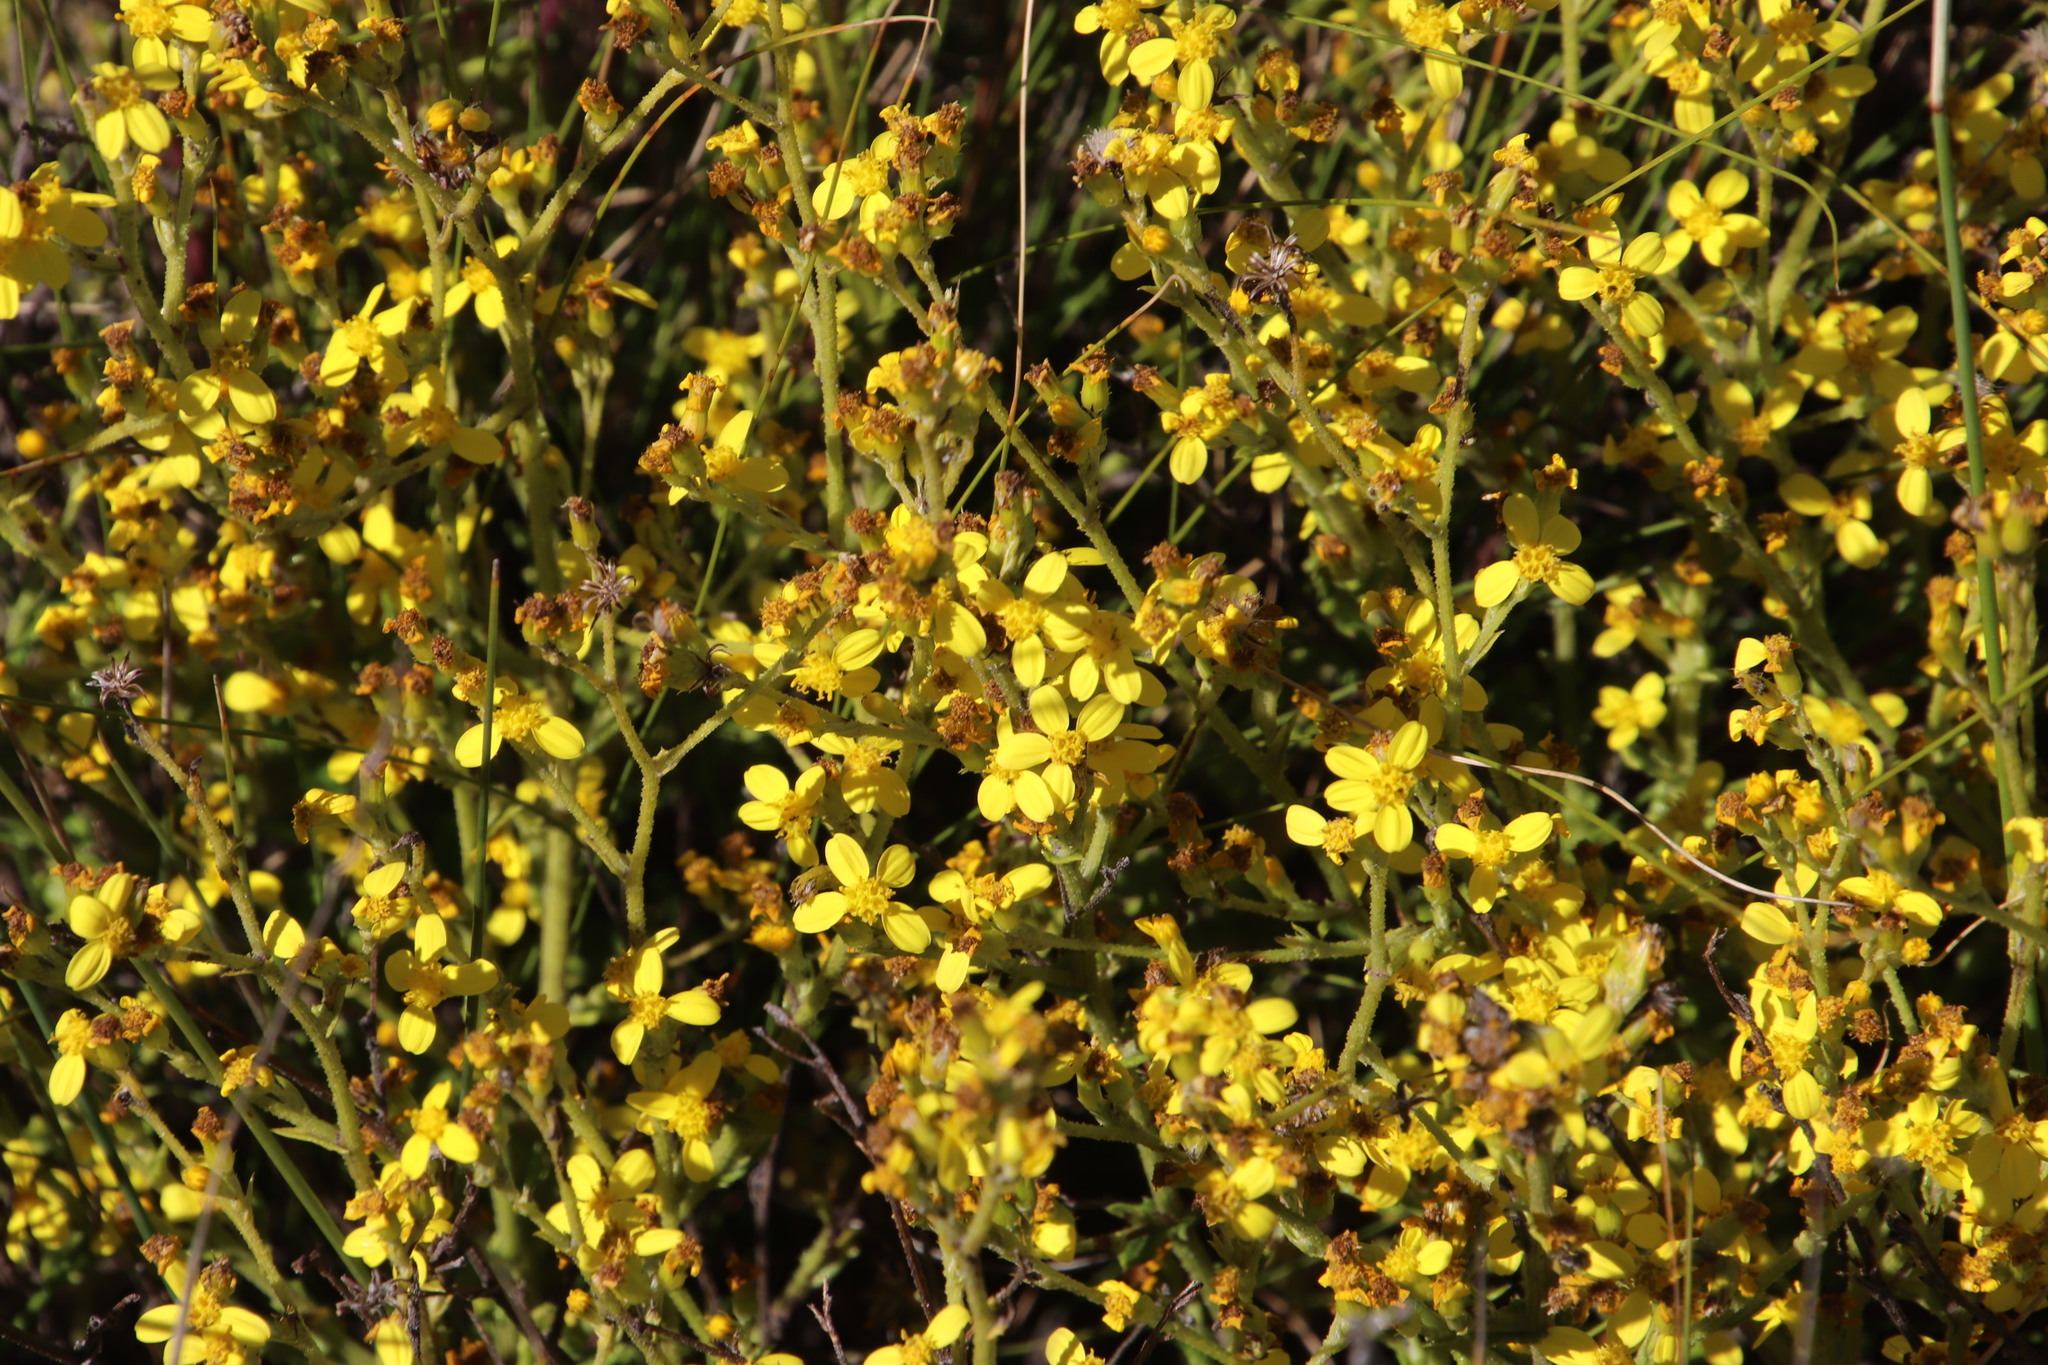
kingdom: Plantae
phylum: Tracheophyta
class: Magnoliopsida
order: Asterales
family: Asteraceae
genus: Senecio
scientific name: Senecio pubigerus
